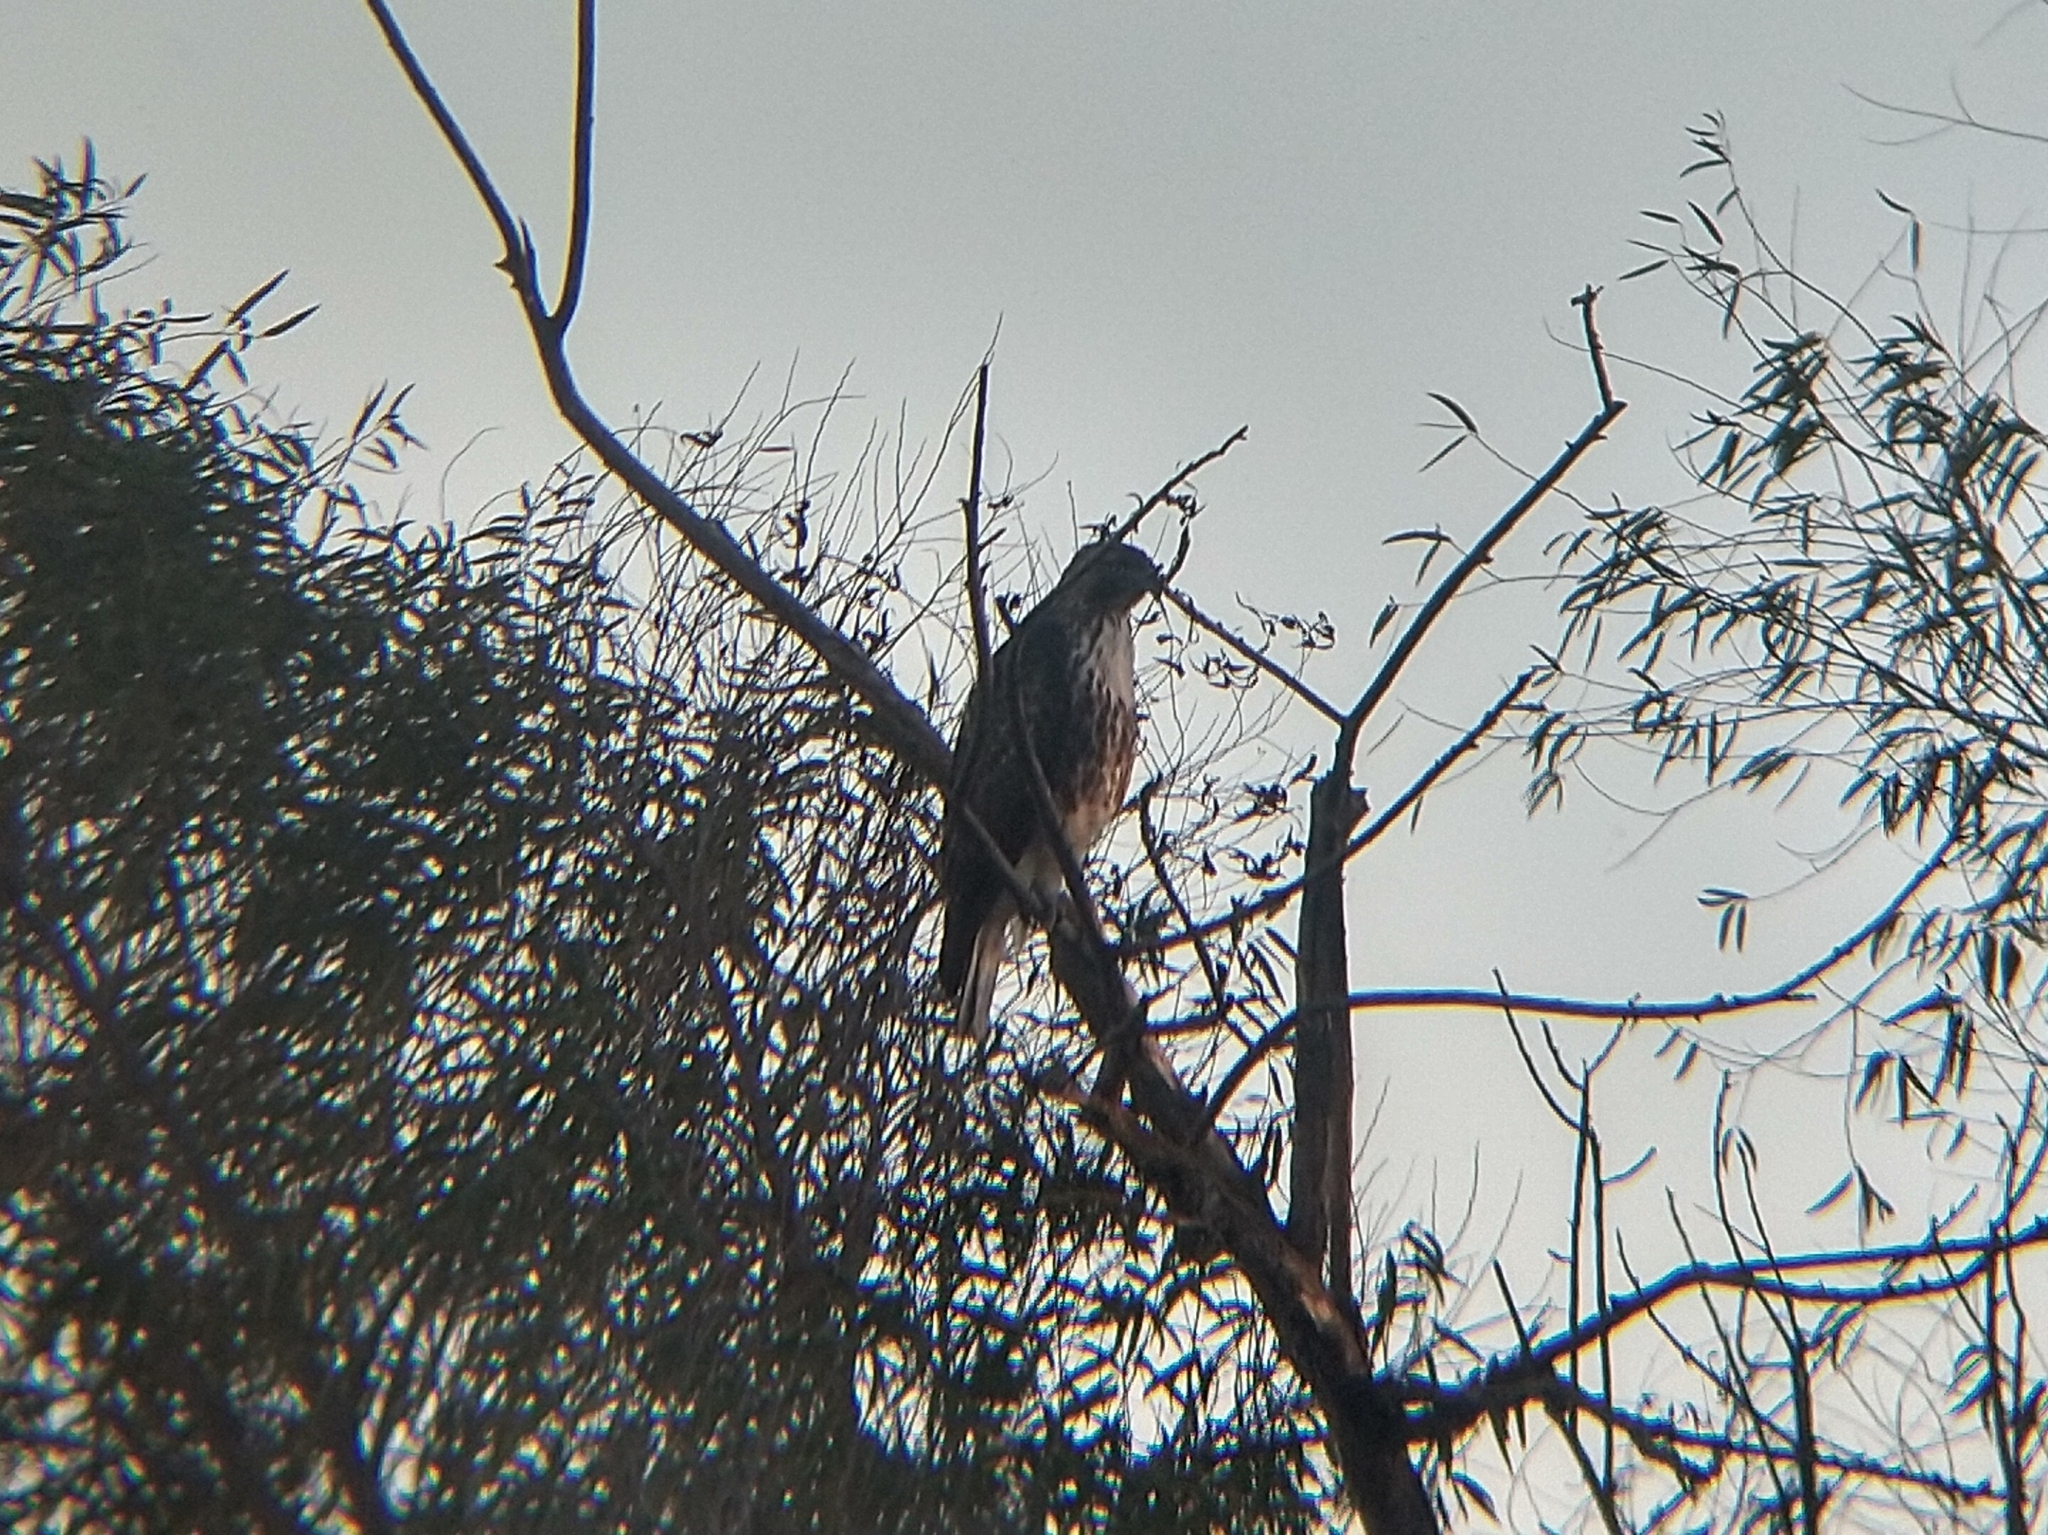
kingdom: Animalia
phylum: Chordata
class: Aves
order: Accipitriformes
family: Accipitridae
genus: Buteo
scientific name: Buteo jamaicensis
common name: Red-tailed hawk
